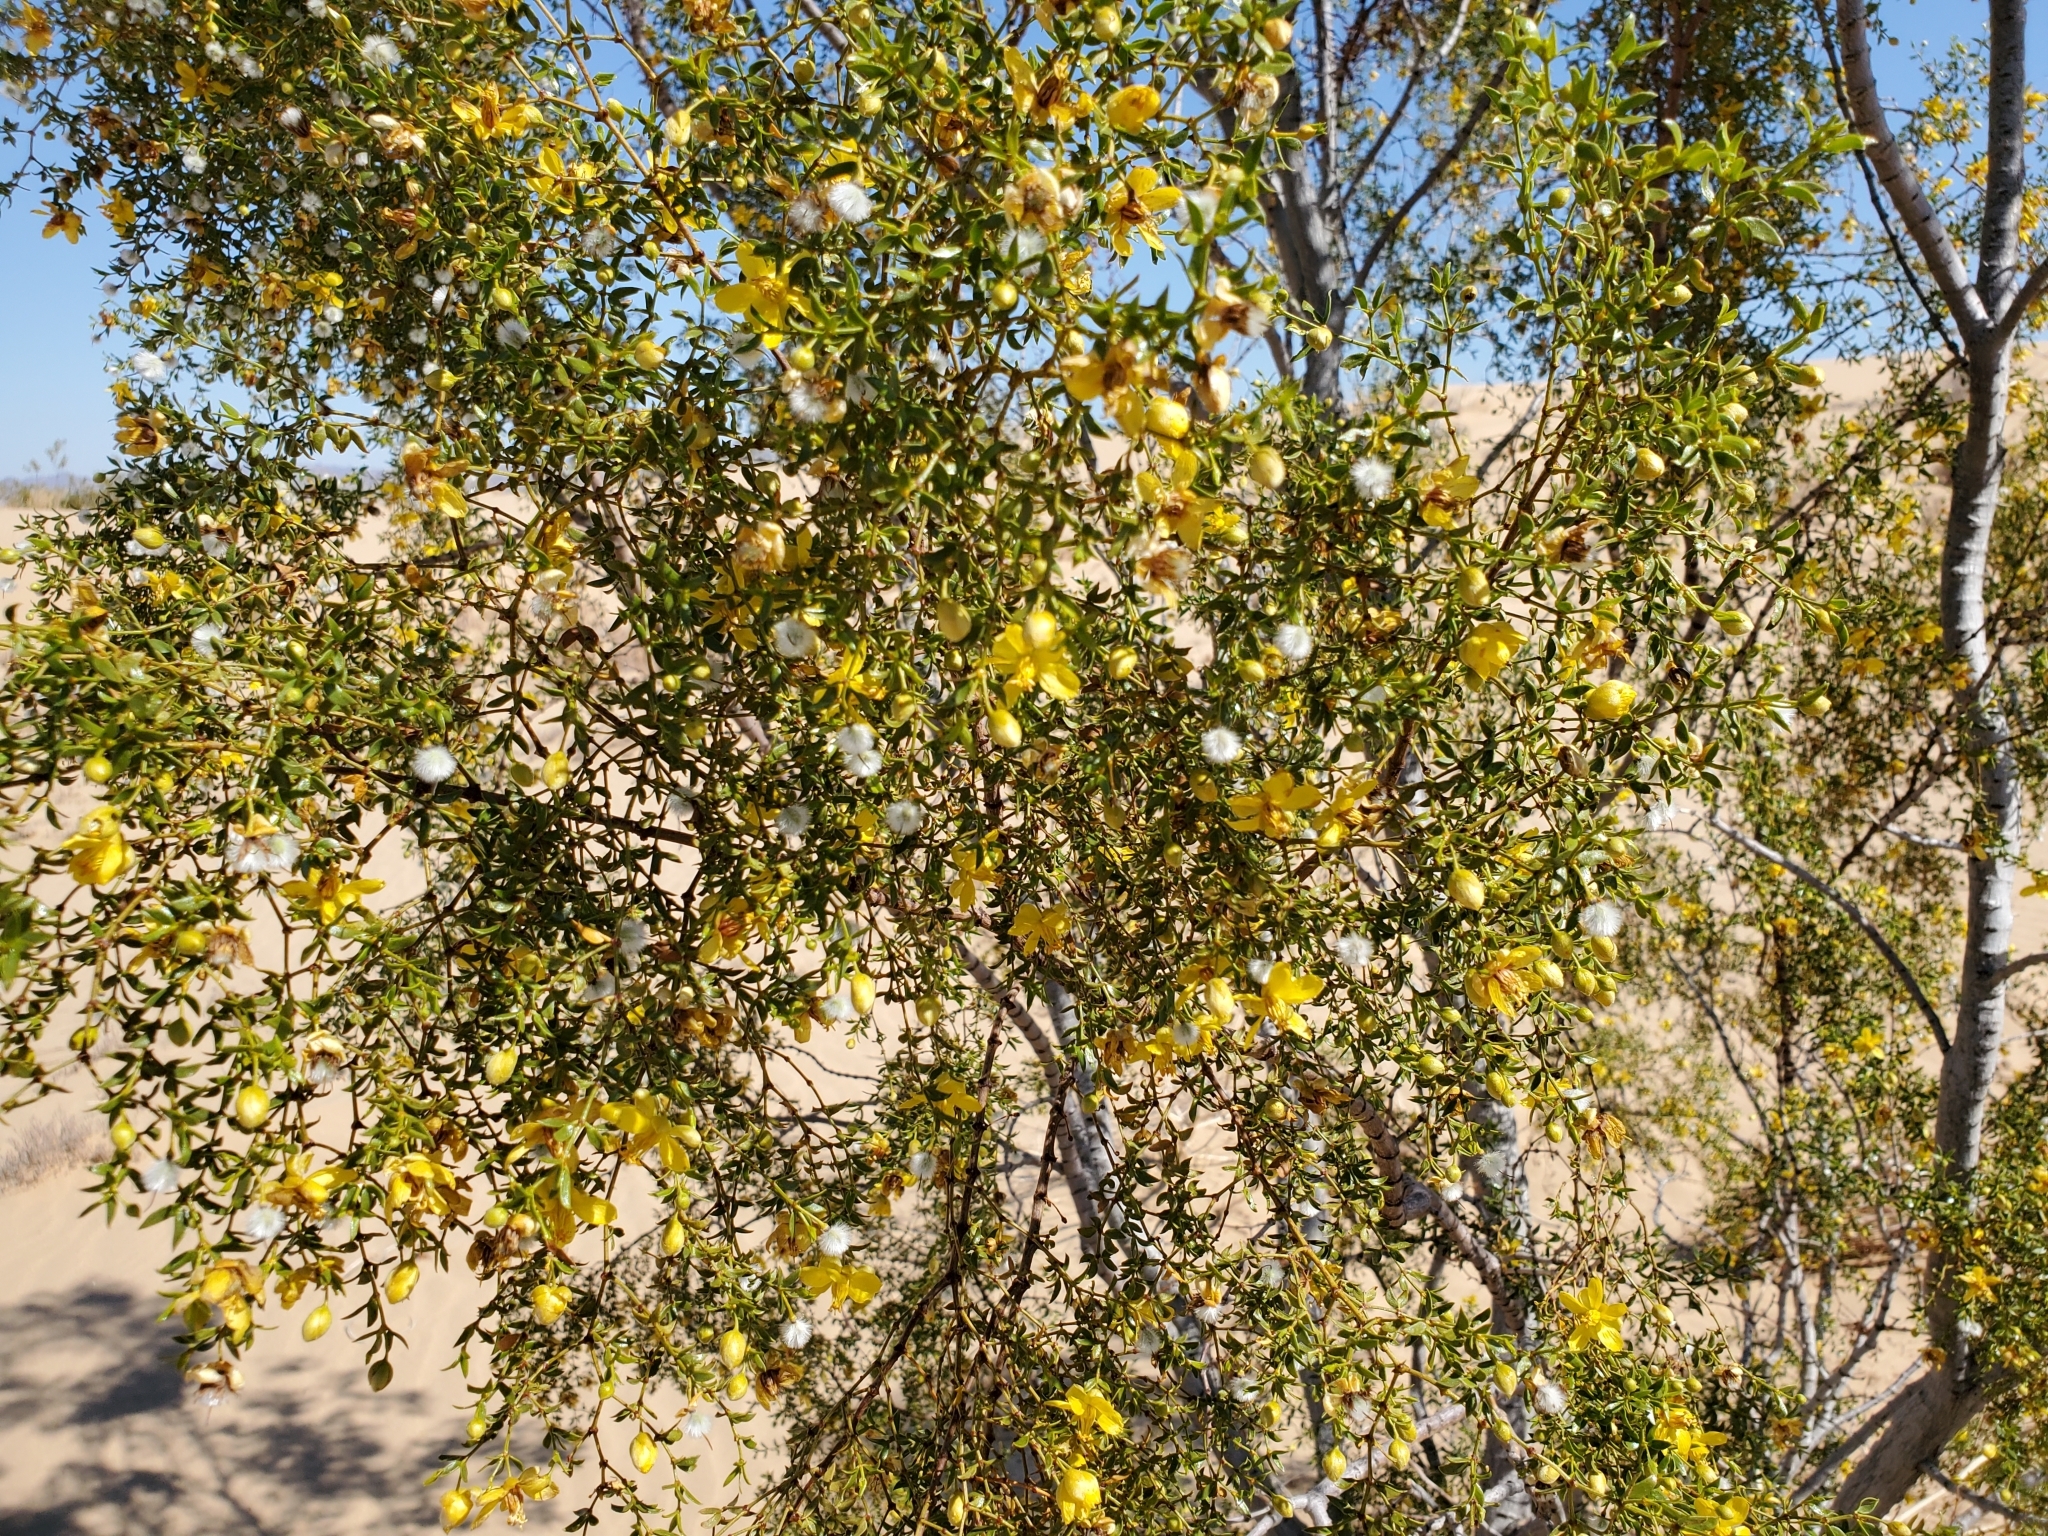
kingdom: Plantae
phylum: Tracheophyta
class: Magnoliopsida
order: Zygophyllales
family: Zygophyllaceae
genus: Larrea
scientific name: Larrea tridentata
